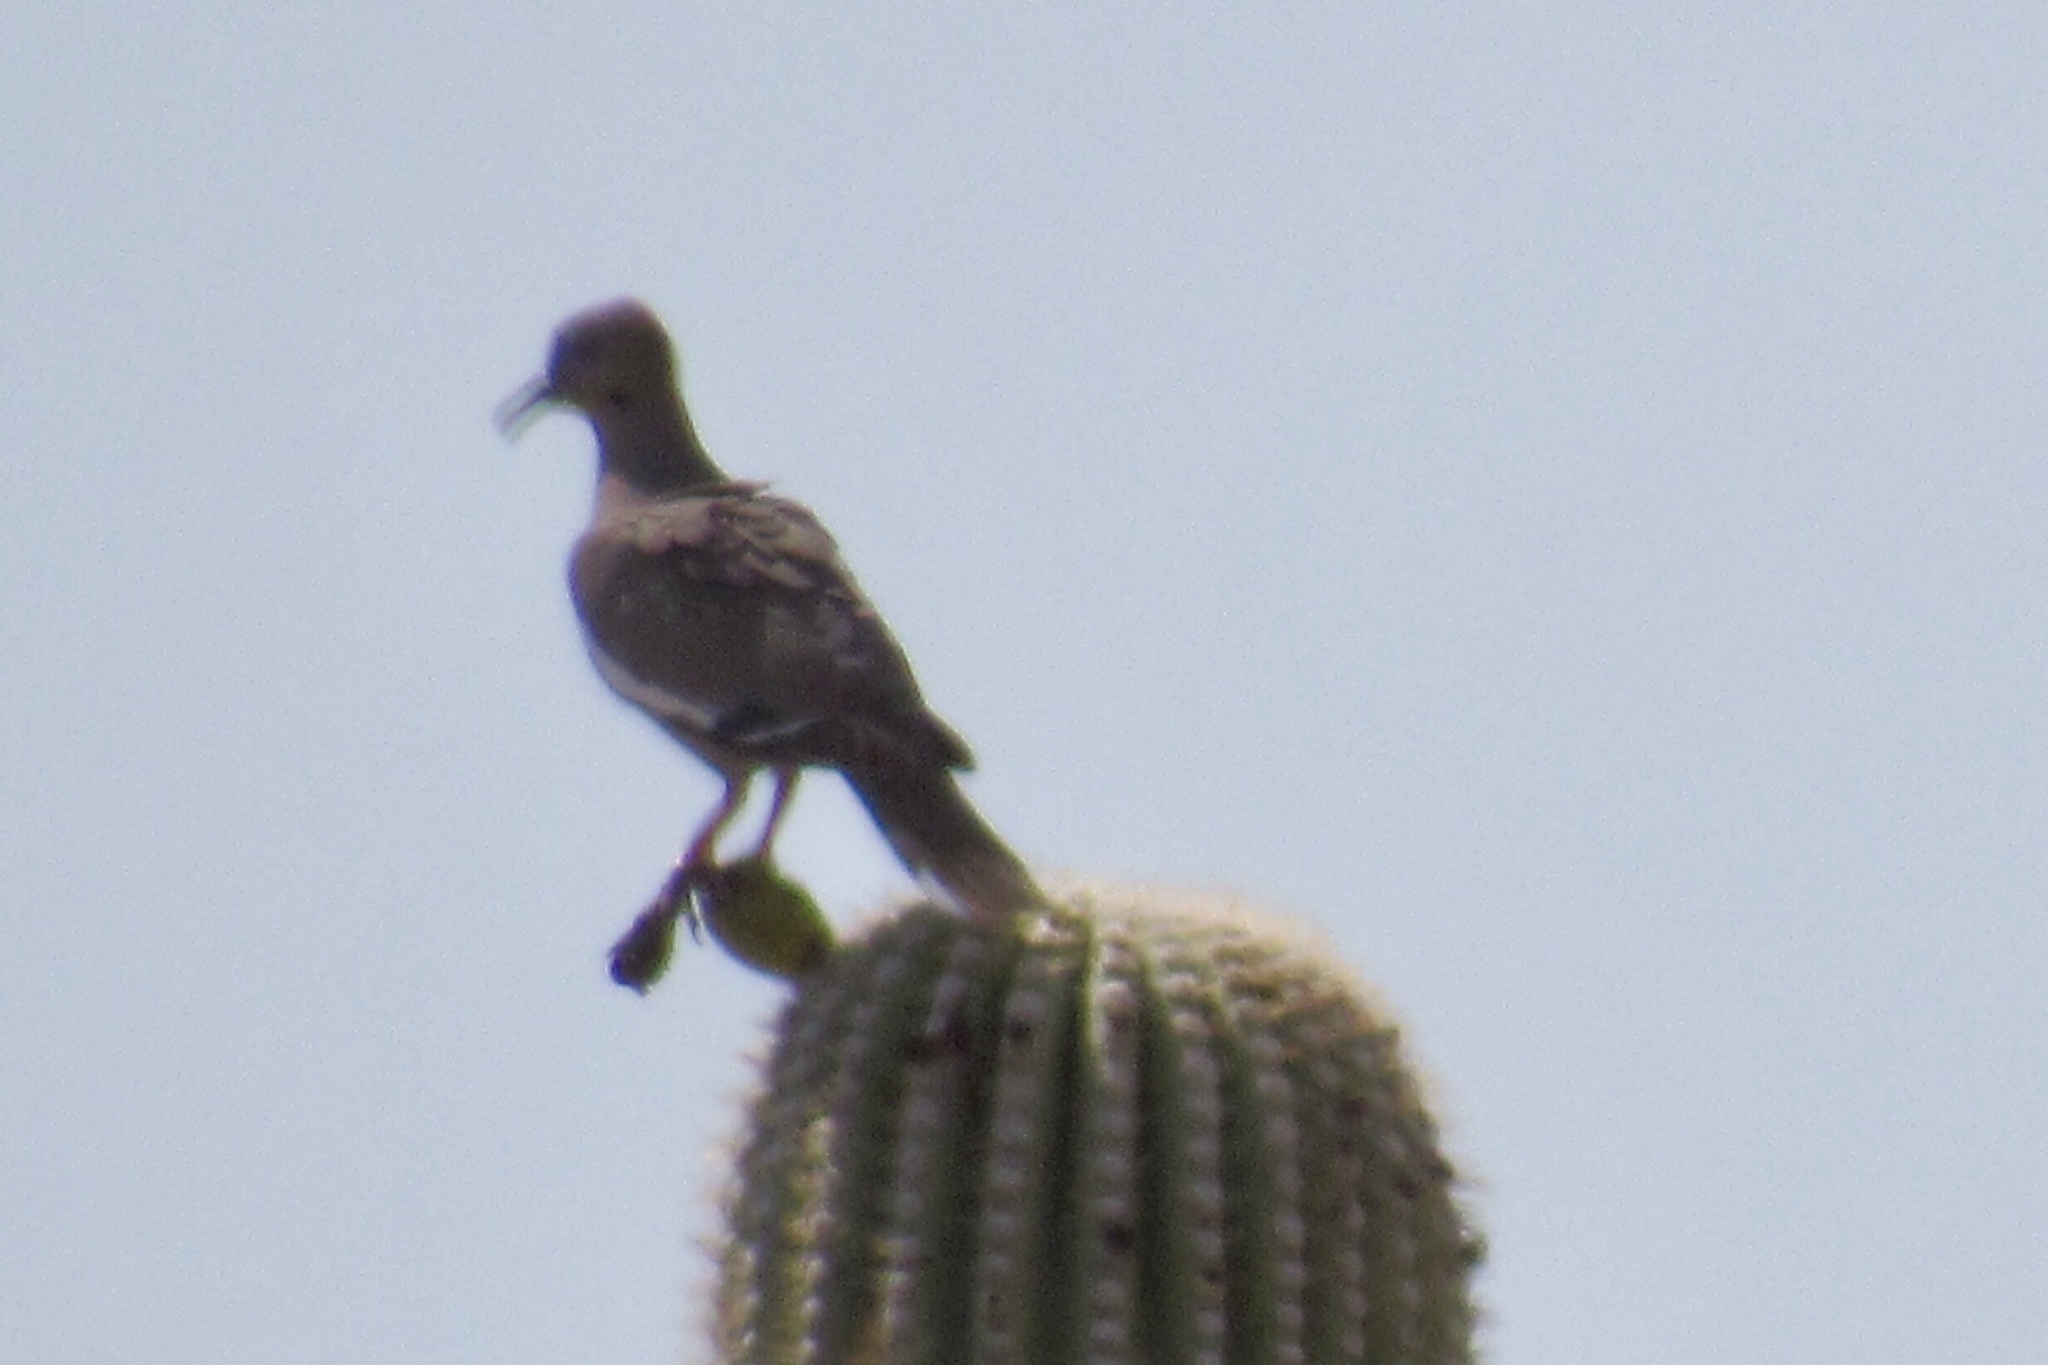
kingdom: Animalia
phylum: Chordata
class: Aves
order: Columbiformes
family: Columbidae
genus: Zenaida
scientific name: Zenaida asiatica
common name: White-winged dove
